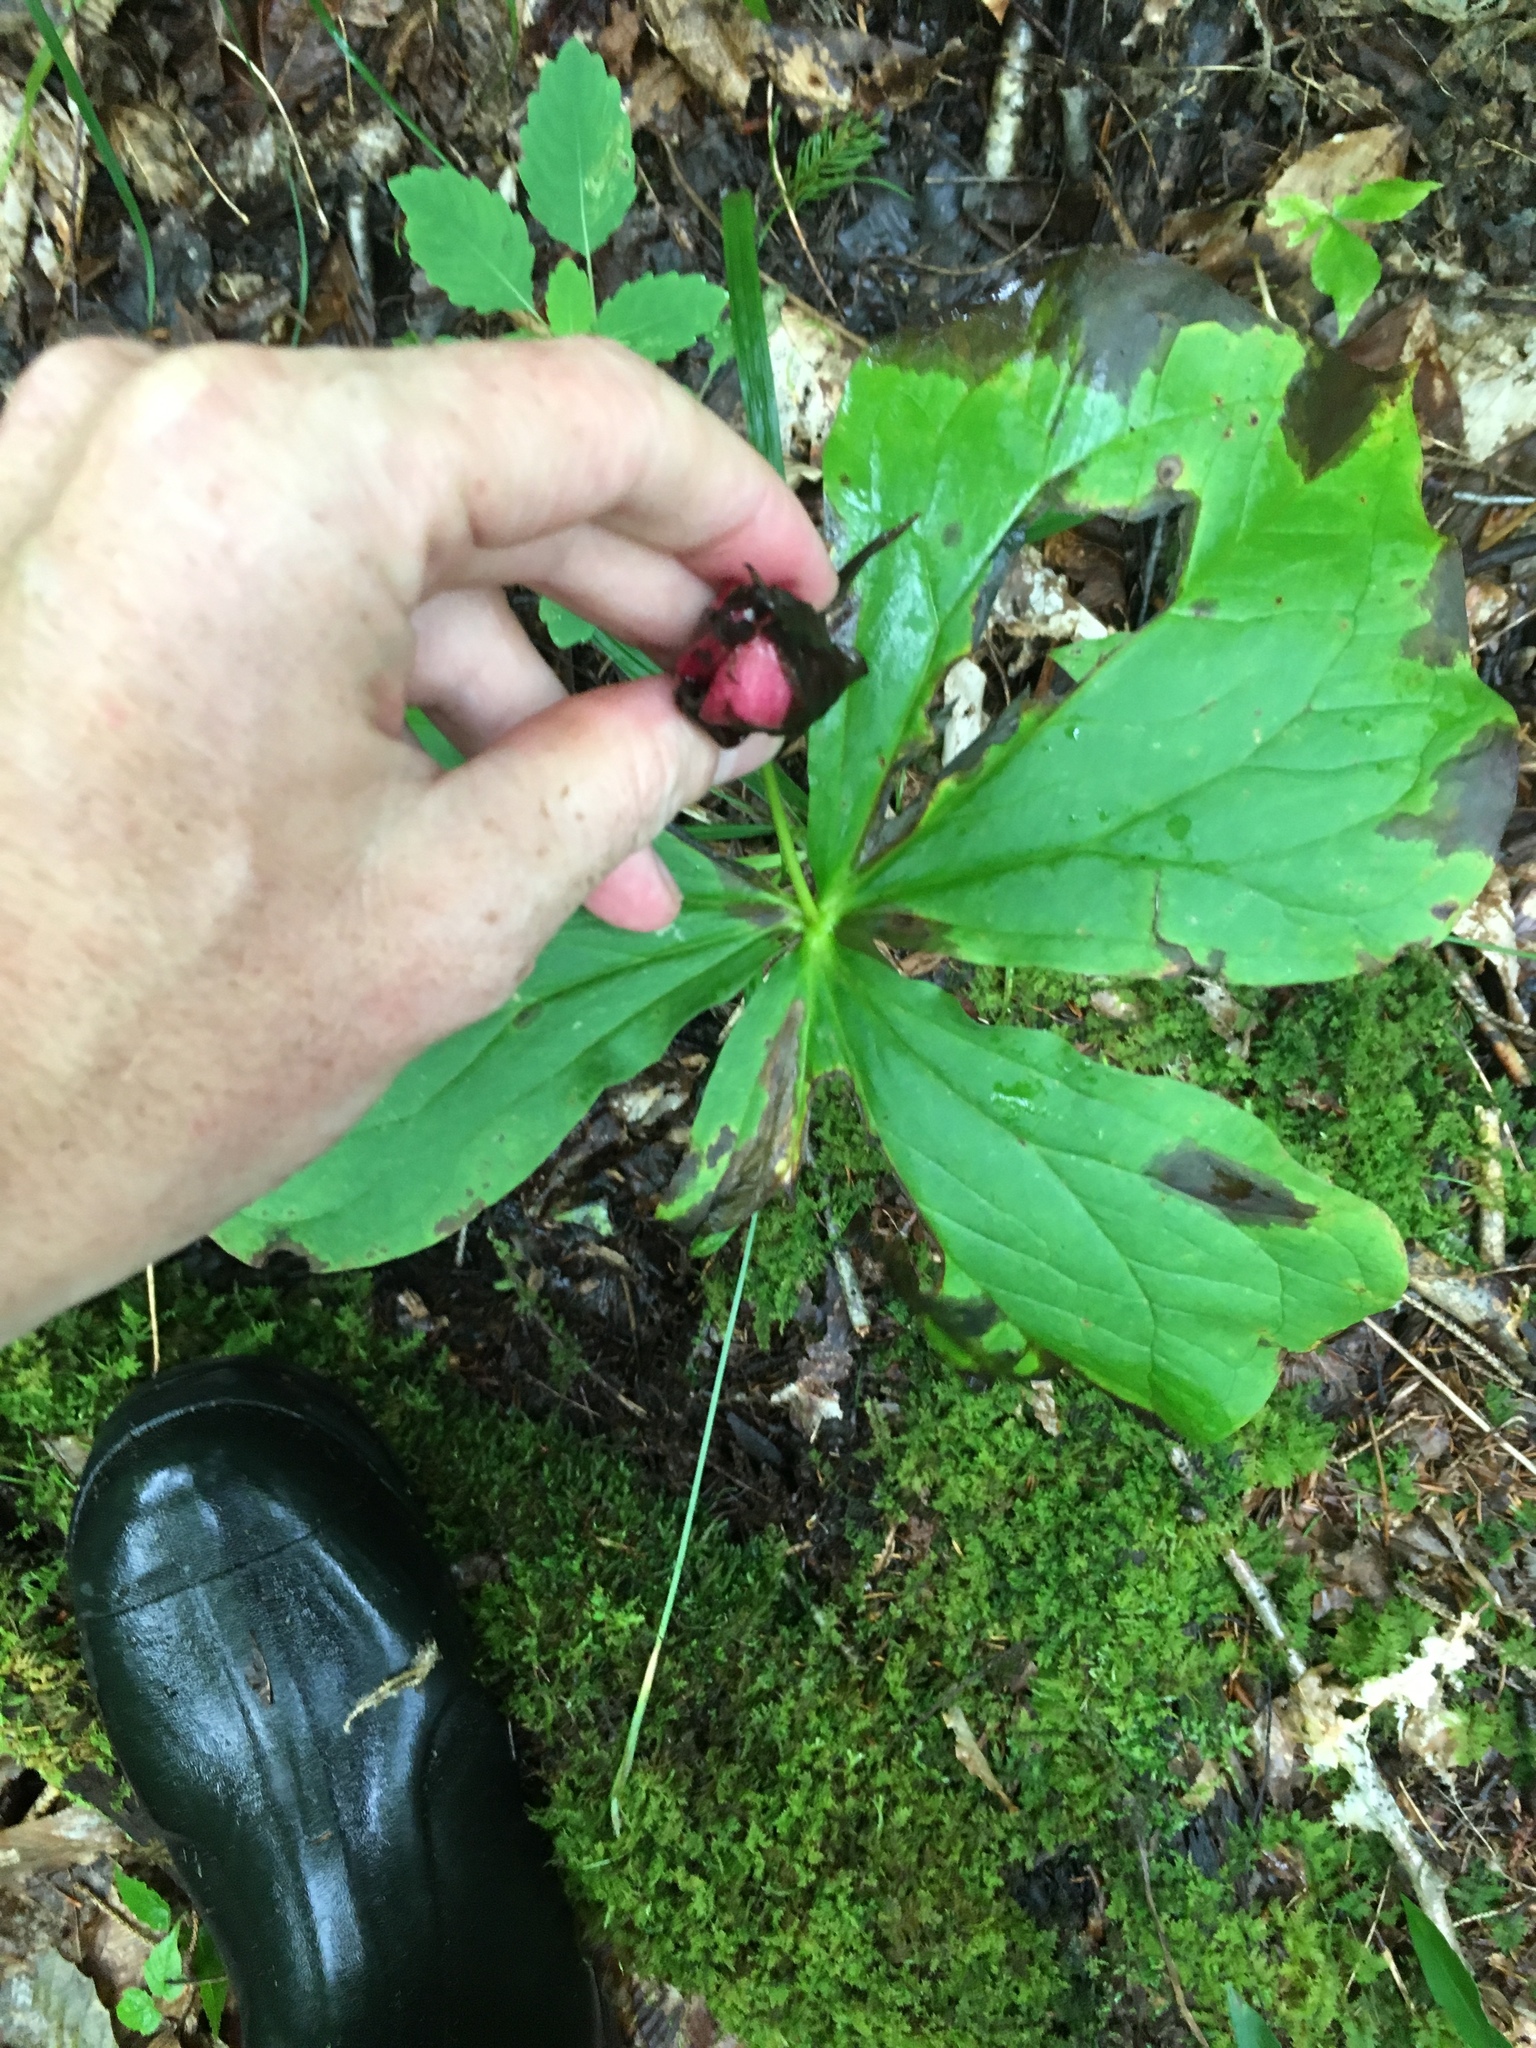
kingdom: Plantae
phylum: Tracheophyta
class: Liliopsida
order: Liliales
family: Melanthiaceae
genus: Trillium
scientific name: Trillium erectum
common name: Purple trillium
